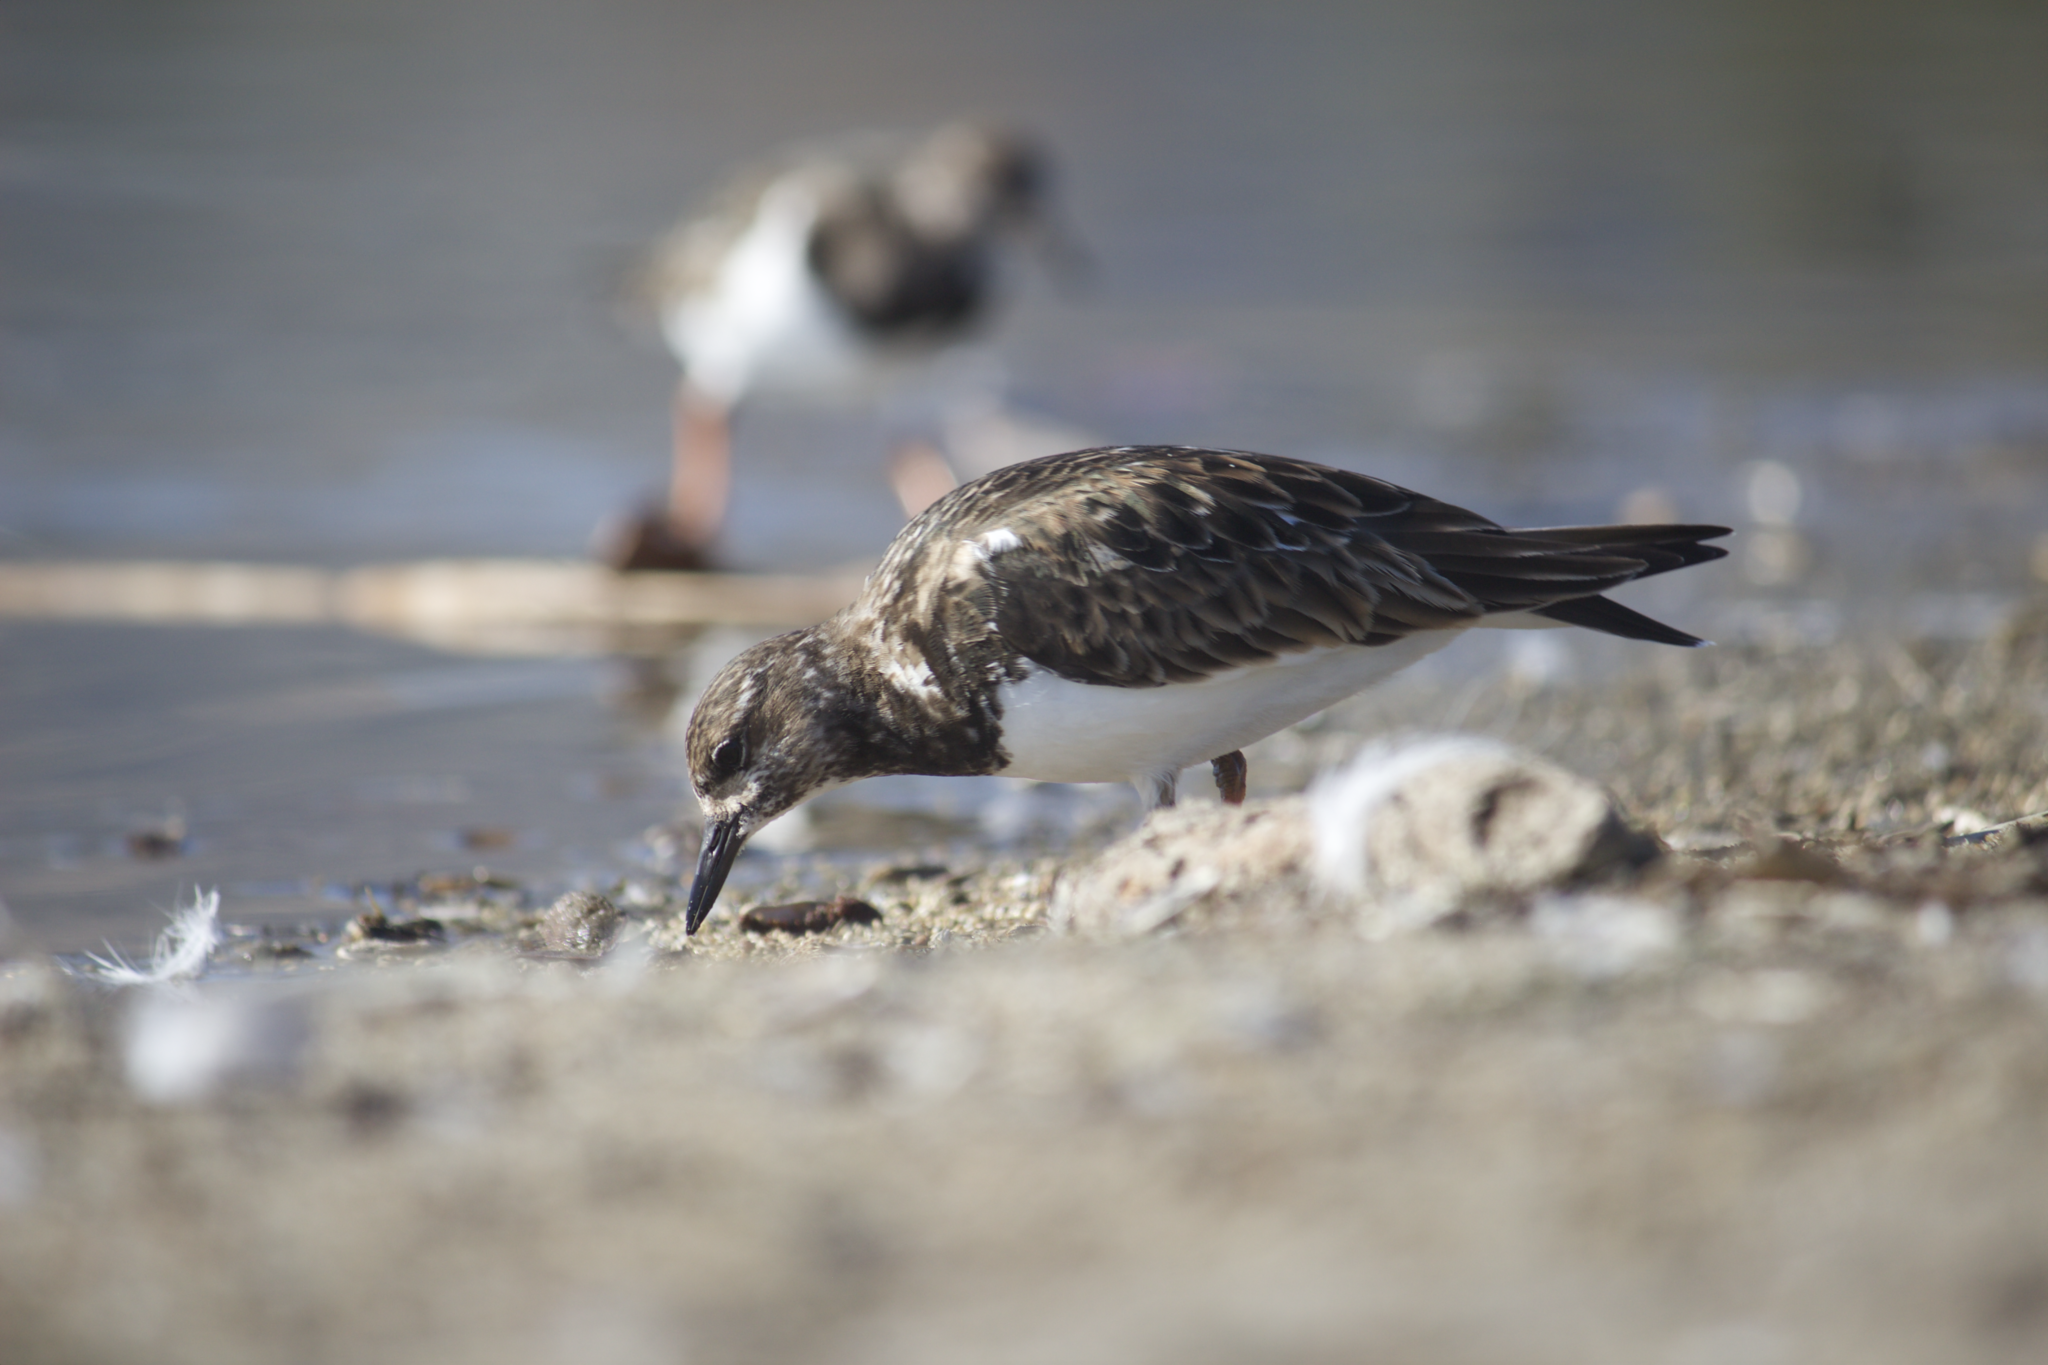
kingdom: Animalia
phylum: Chordata
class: Aves
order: Charadriiformes
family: Scolopacidae
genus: Arenaria
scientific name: Arenaria interpres
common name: Ruddy turnstone
